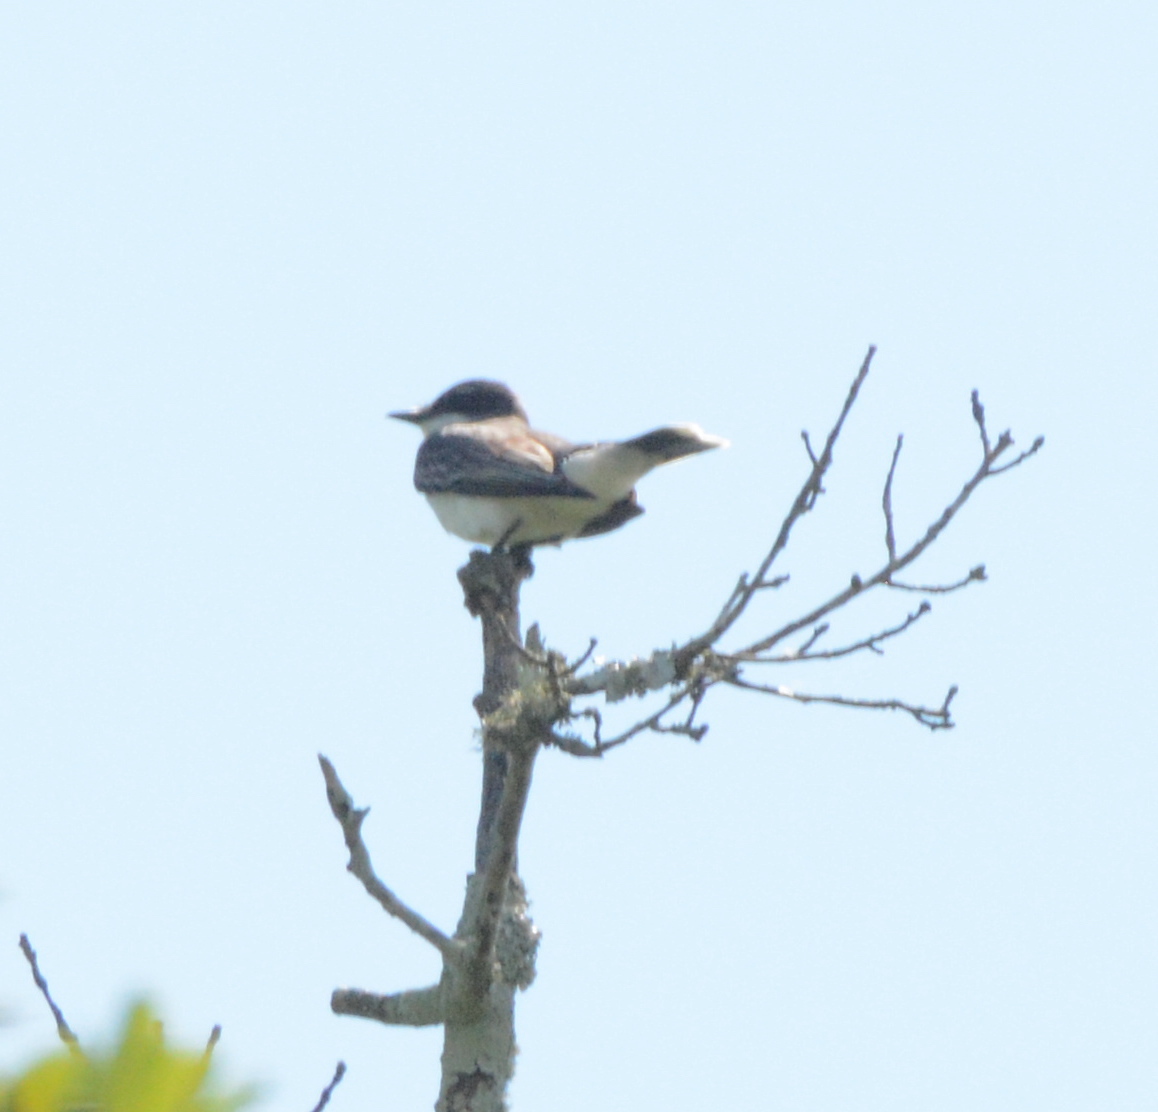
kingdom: Animalia
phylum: Chordata
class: Aves
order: Passeriformes
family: Tyrannidae
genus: Tyrannus
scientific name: Tyrannus tyrannus
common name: Eastern kingbird
